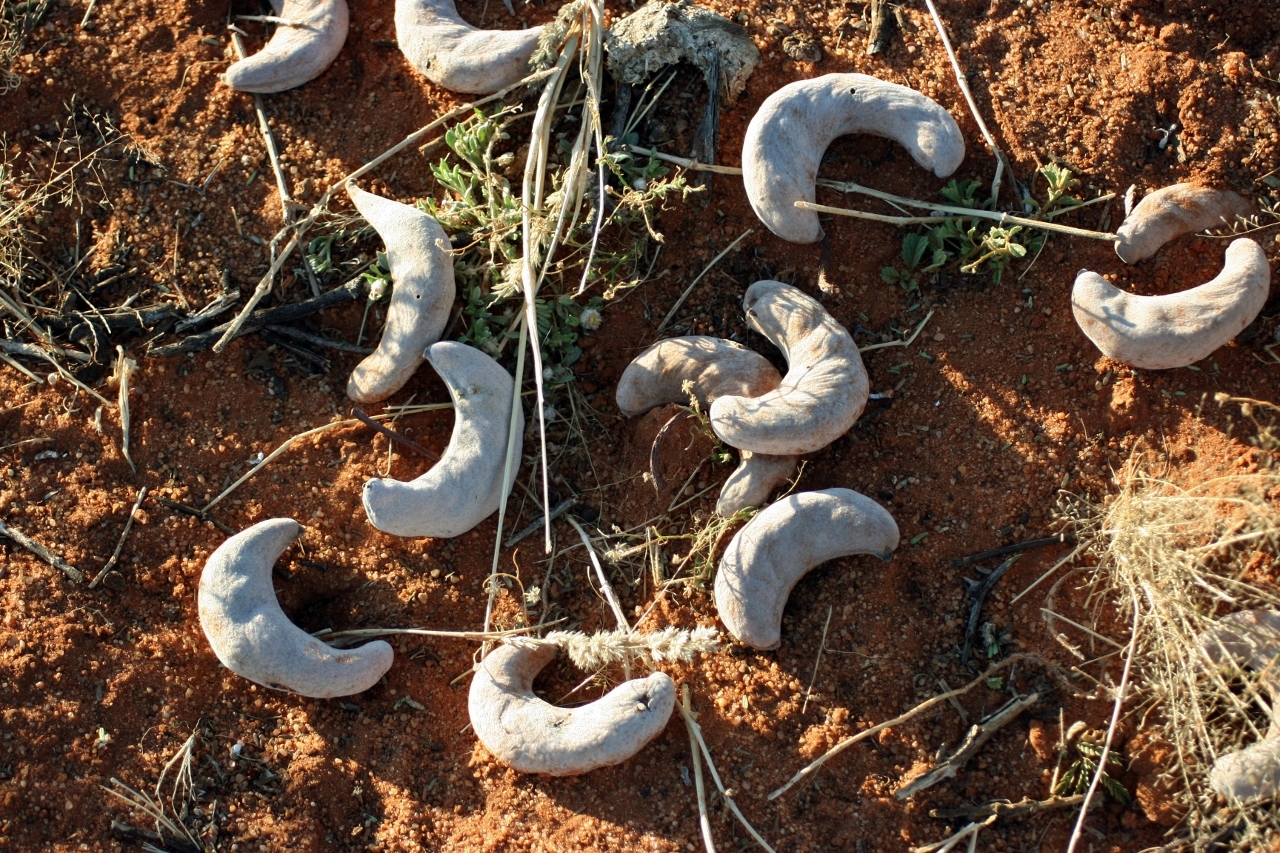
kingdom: Plantae
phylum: Tracheophyta
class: Magnoliopsida
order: Fabales
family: Fabaceae
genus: Vachellia
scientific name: Vachellia erioloba
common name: Camel thorn
